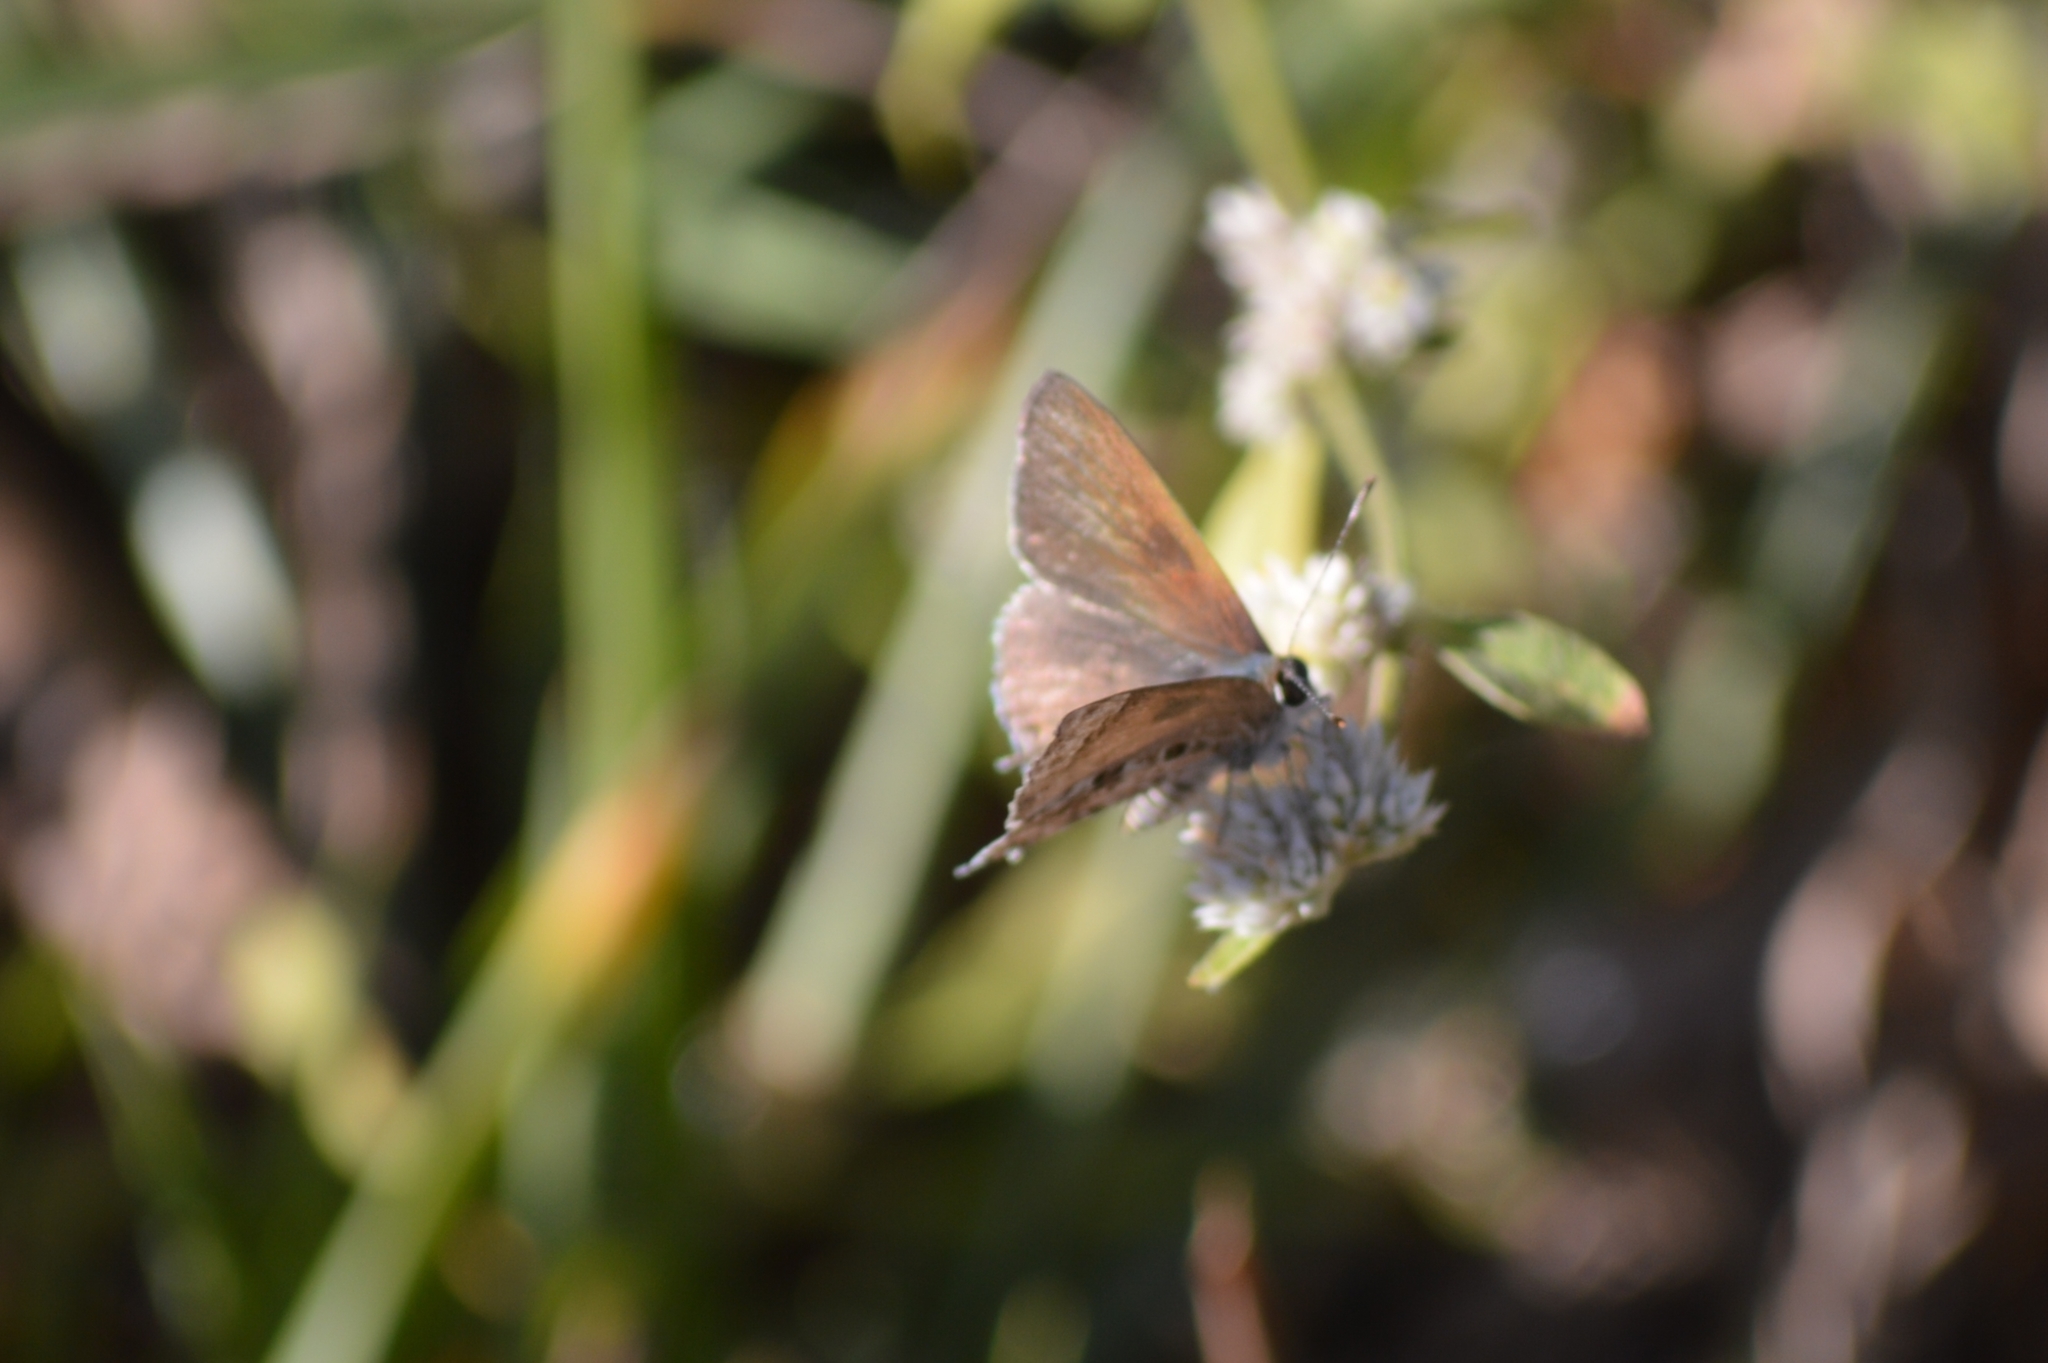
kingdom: Animalia
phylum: Arthropoda
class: Insecta
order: Lepidoptera
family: Lycaenidae
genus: Strymon
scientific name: Strymon astiocha
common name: Gray-spotted scrub-hairstreak
